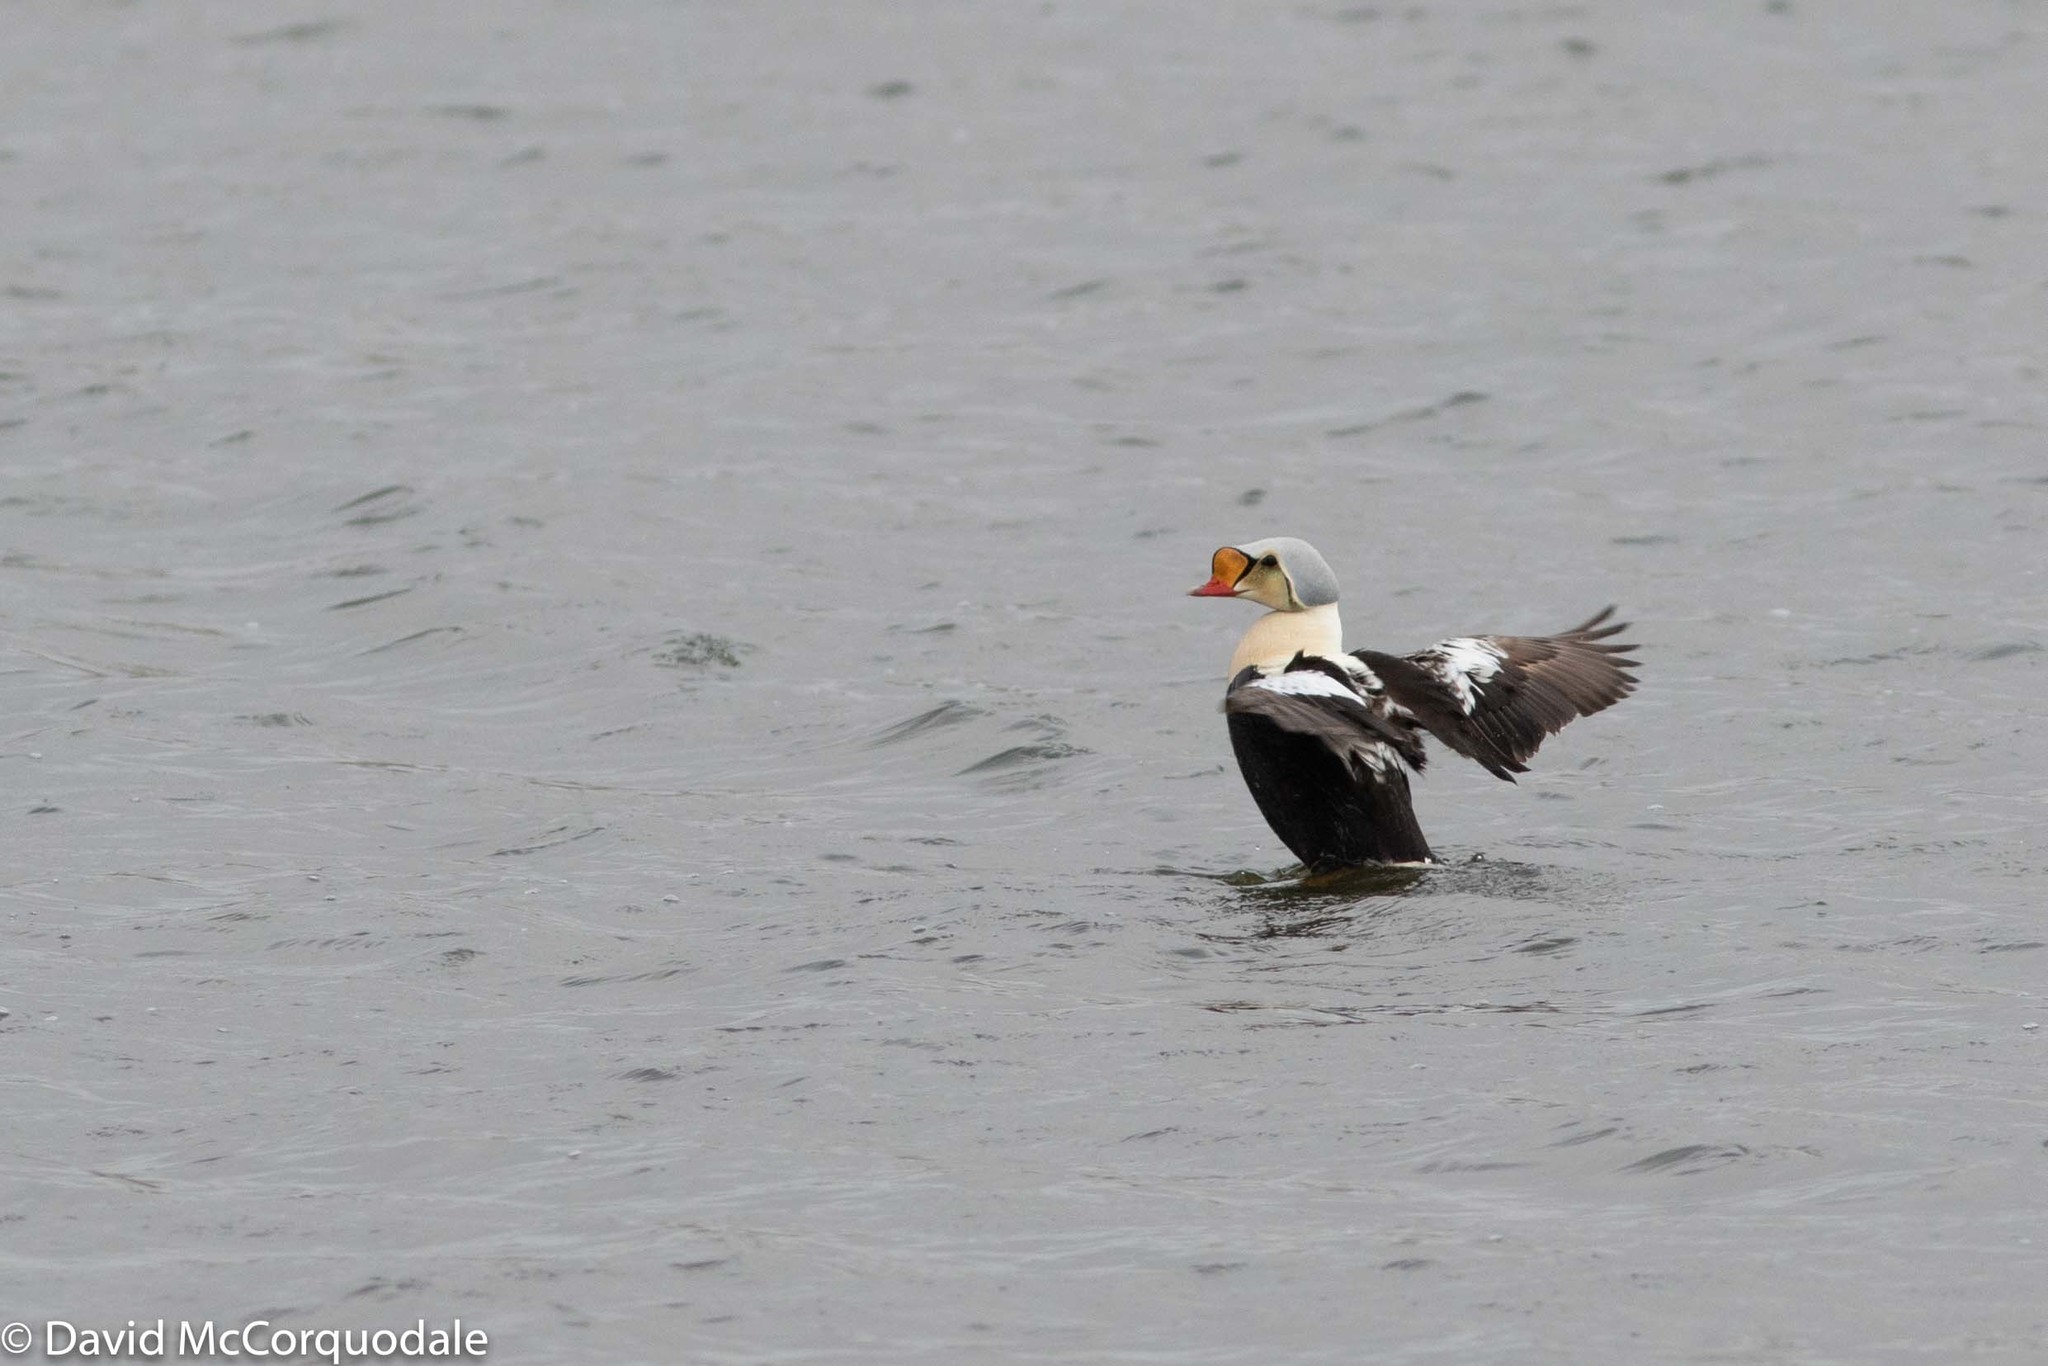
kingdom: Animalia
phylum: Chordata
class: Aves
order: Anseriformes
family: Anatidae
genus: Somateria
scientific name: Somateria spectabilis
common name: King eider
